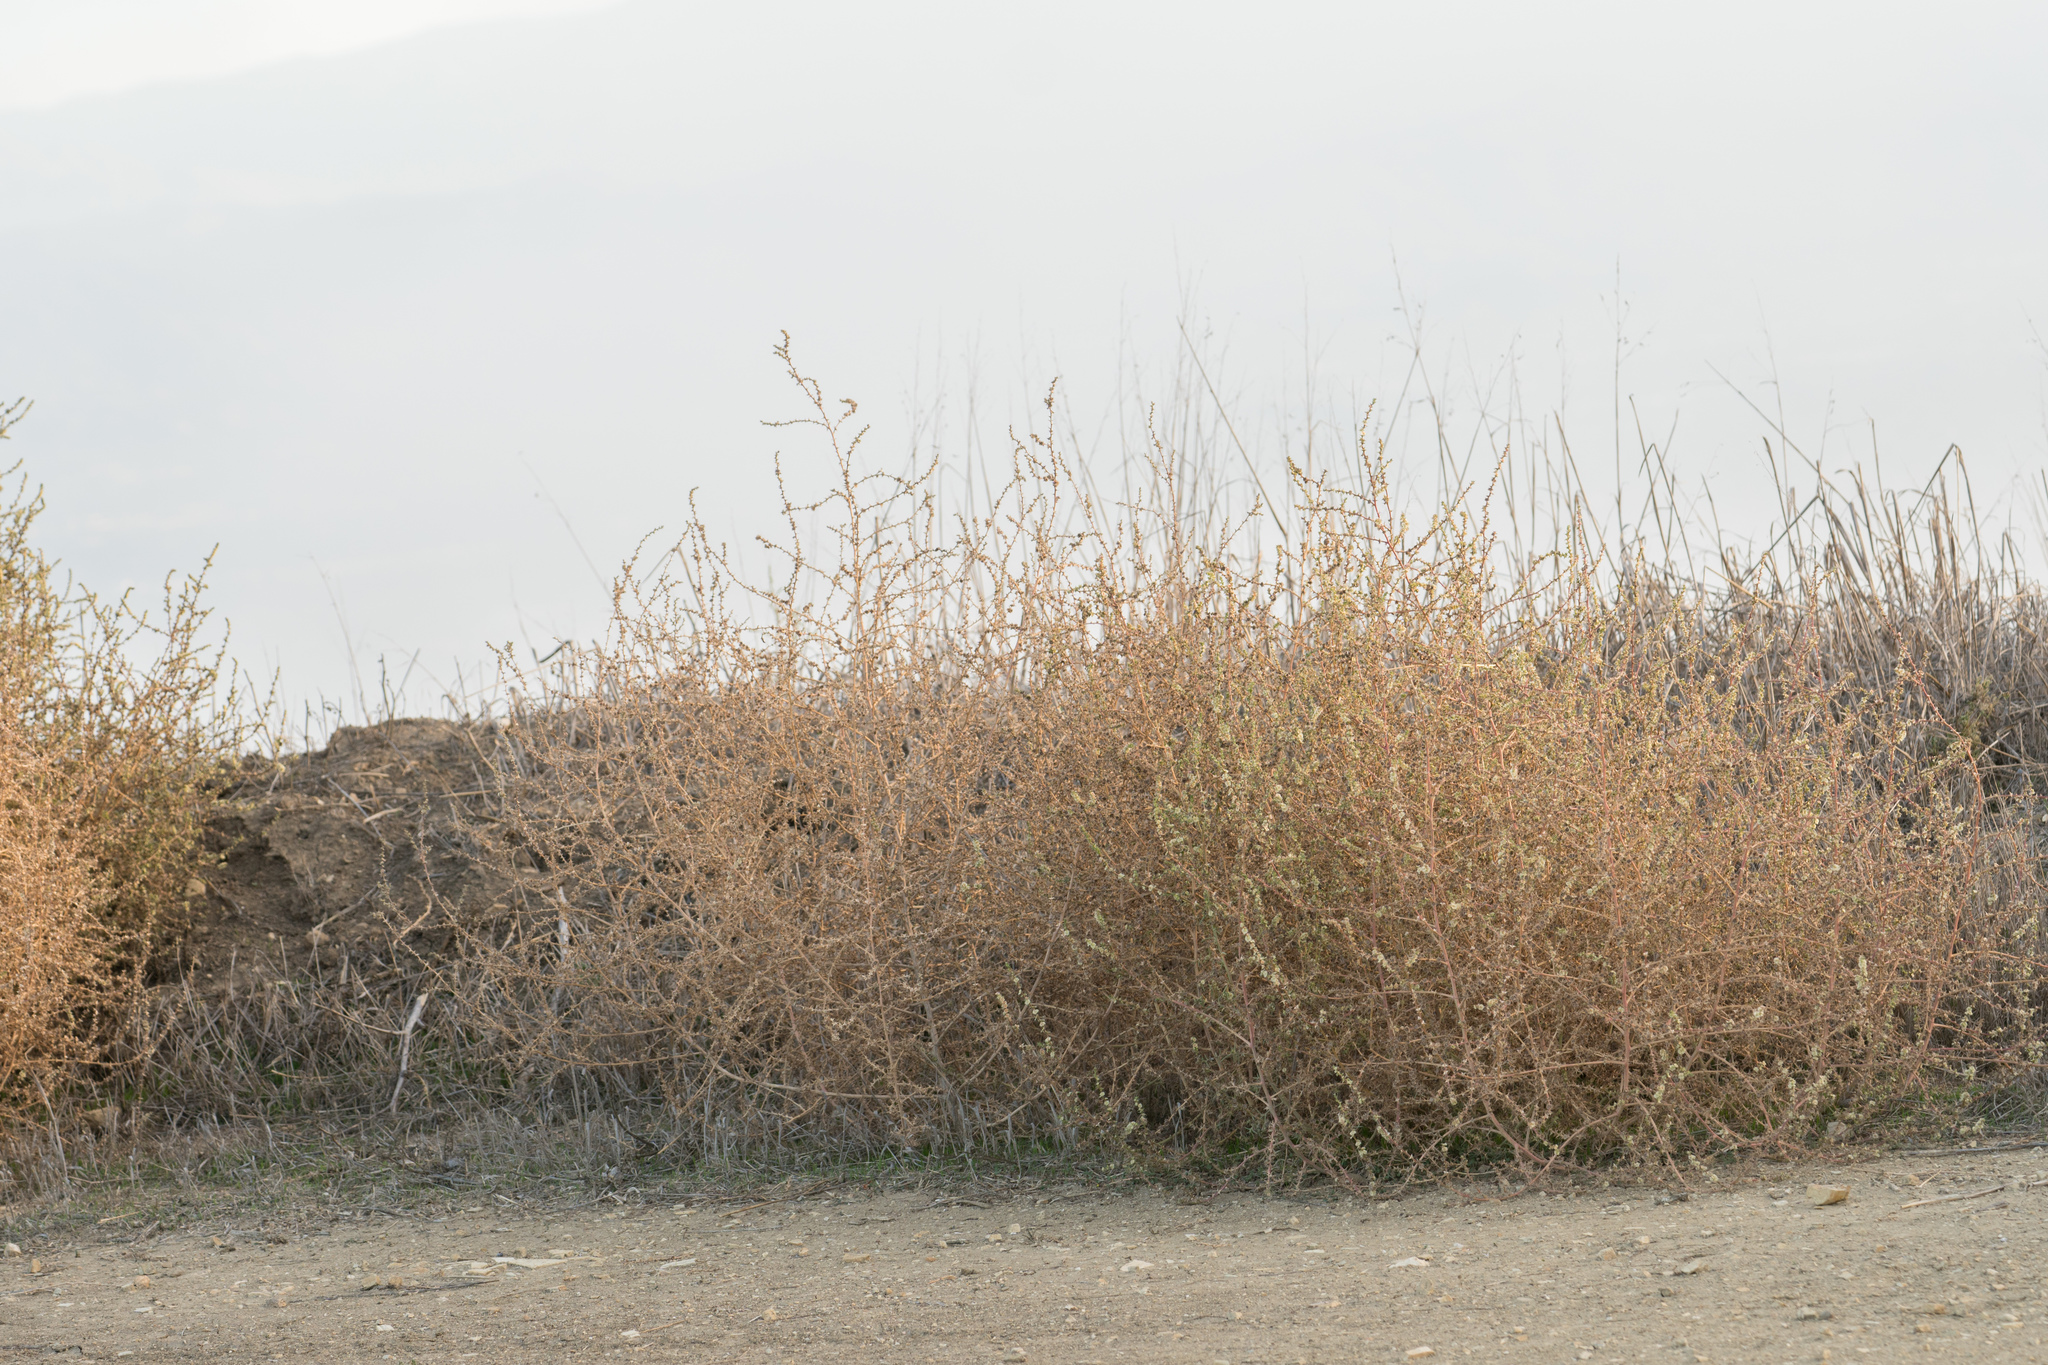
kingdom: Plantae
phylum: Tracheophyta
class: Magnoliopsida
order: Caryophyllales
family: Amaranthaceae
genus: Salsola
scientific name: Salsola australis
